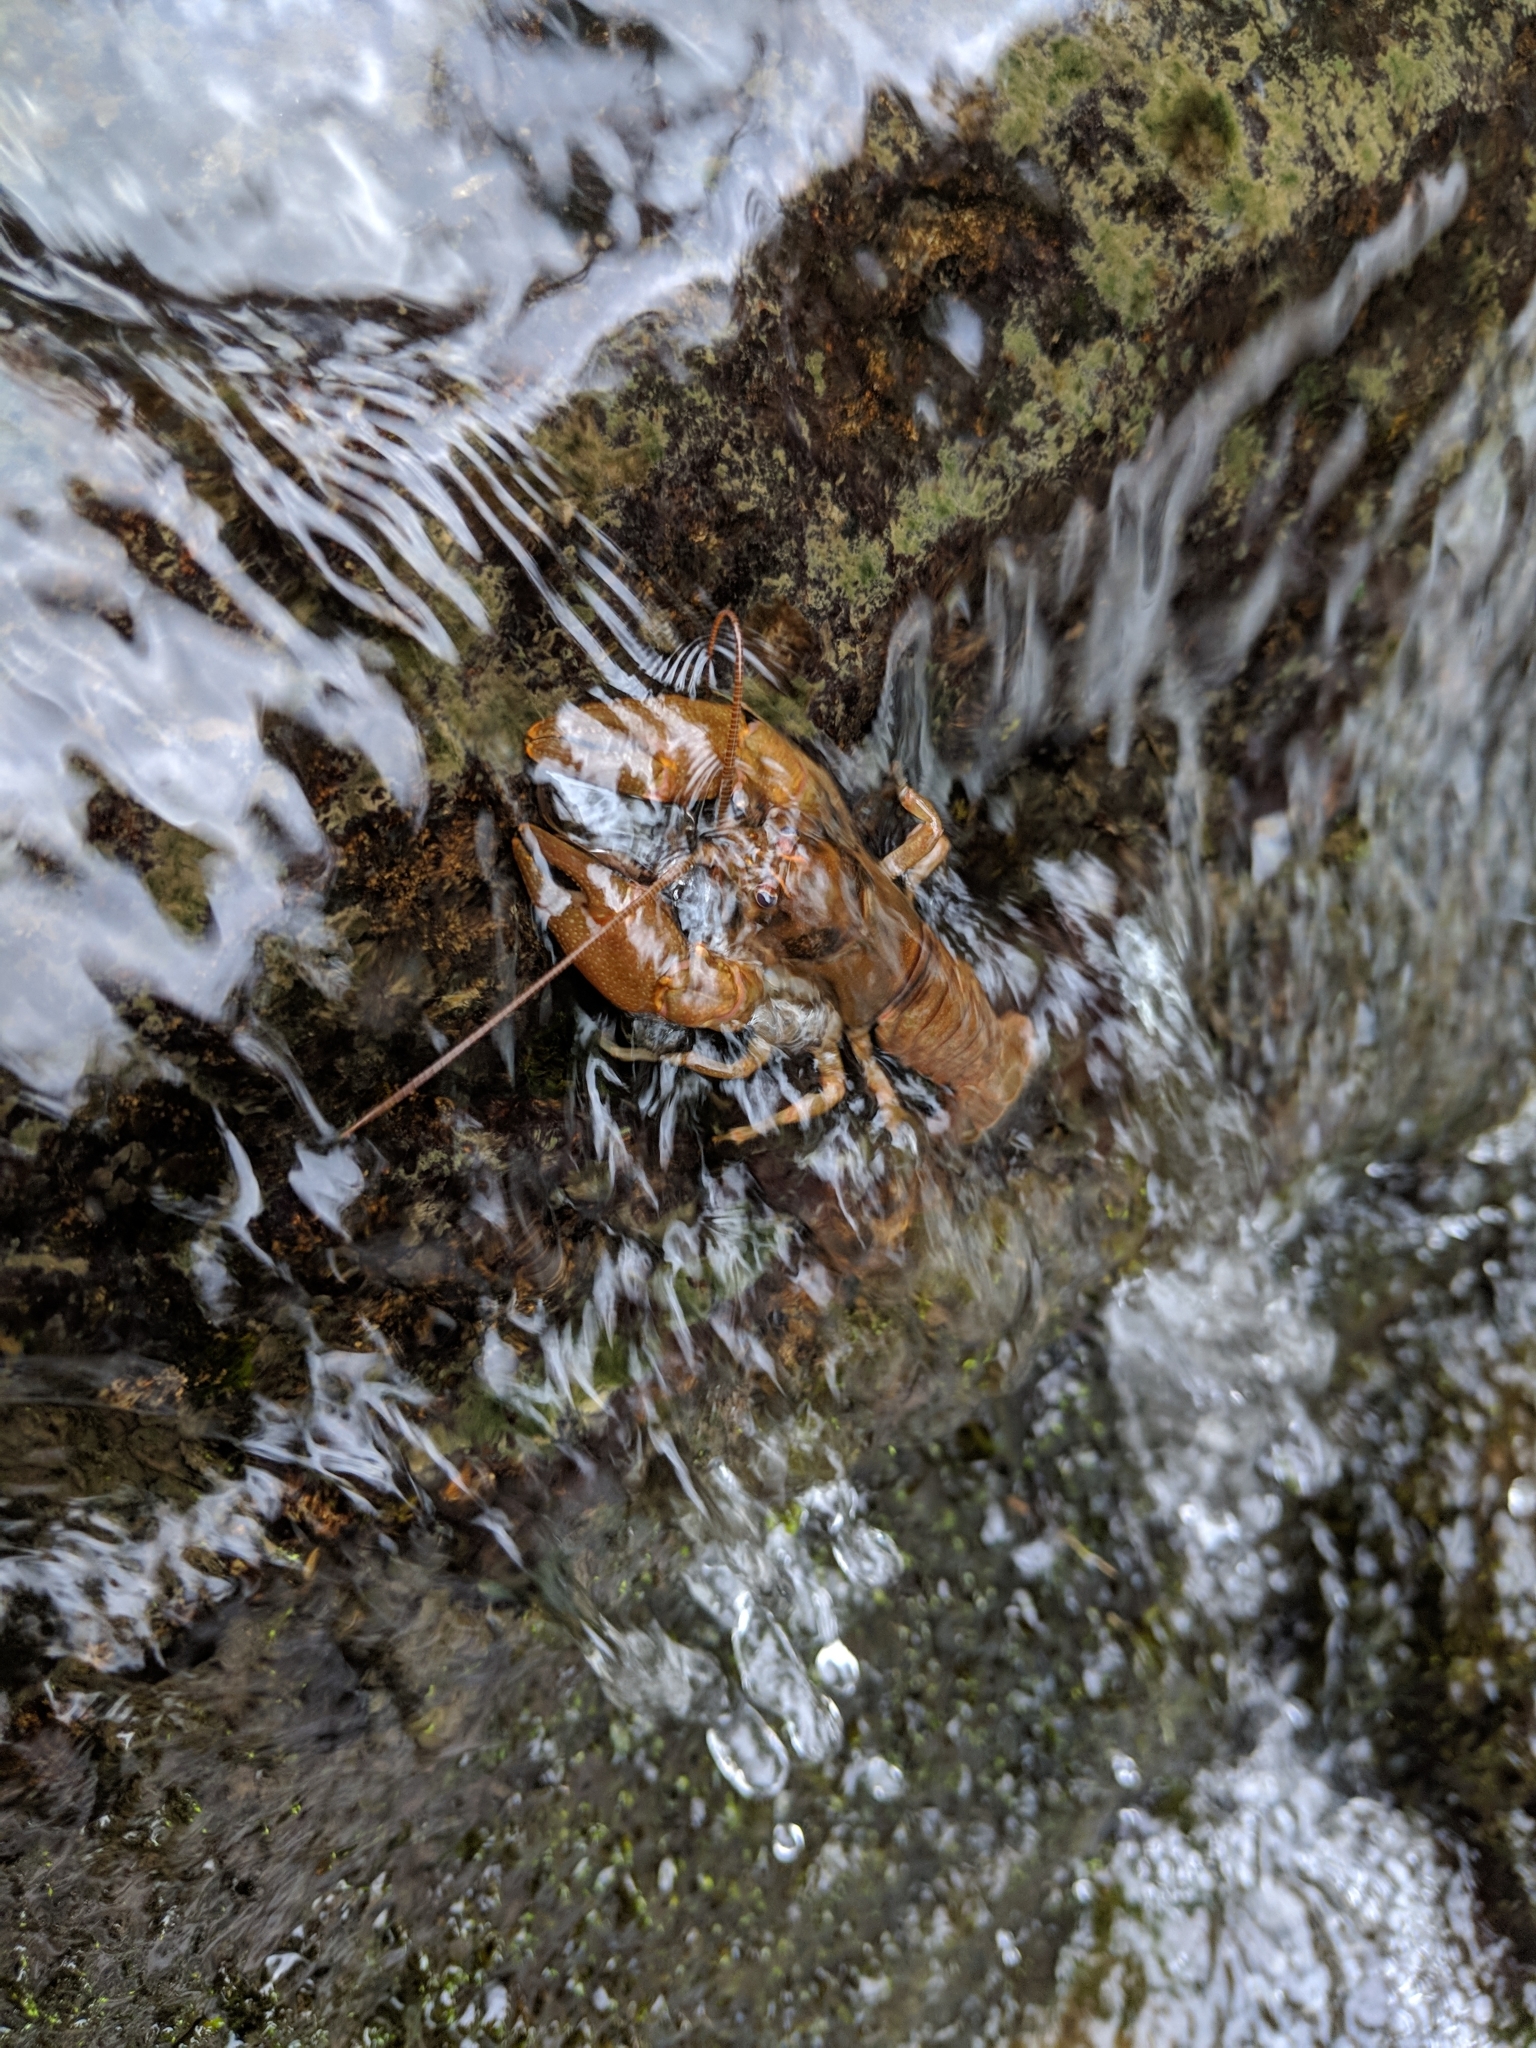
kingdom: Animalia
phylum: Arthropoda
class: Malacostraca
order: Decapoda
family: Cambaridae
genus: Cambarus
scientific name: Cambarus longirostris
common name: Longnose crayfish
